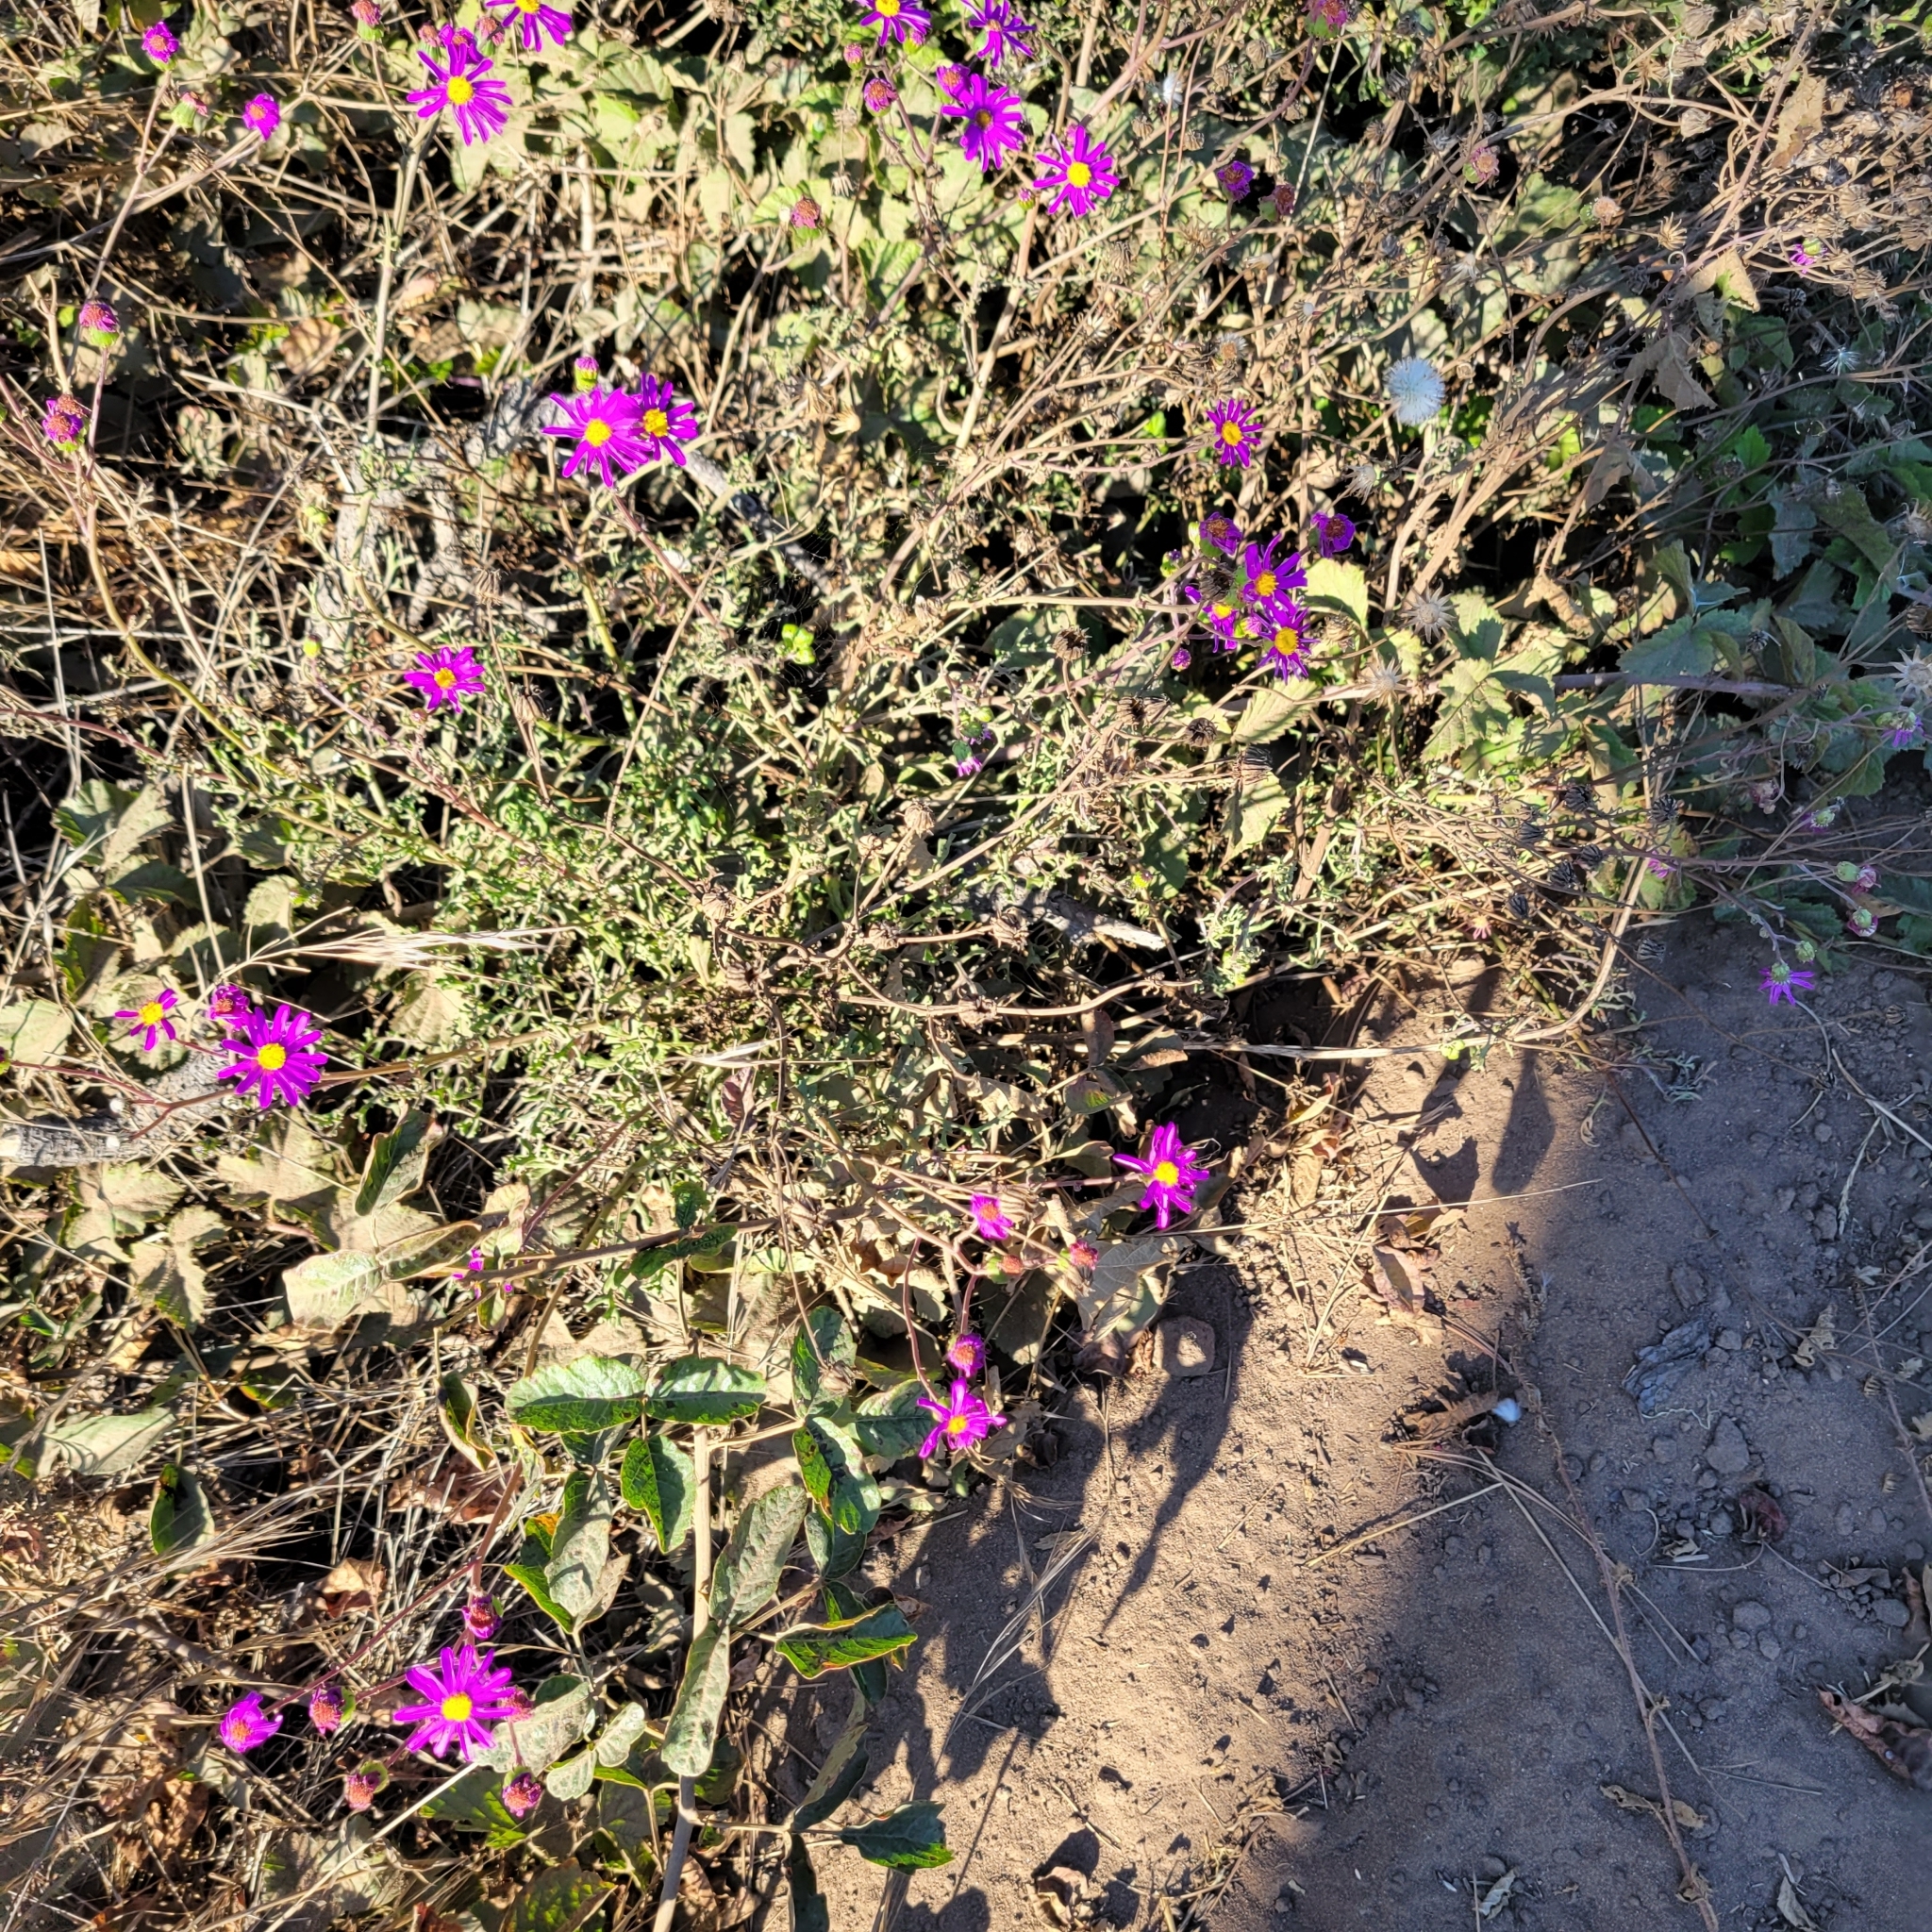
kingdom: Plantae
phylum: Tracheophyta
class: Magnoliopsida
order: Asterales
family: Asteraceae
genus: Senecio
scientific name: Senecio elegans
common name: Purple groundsel
